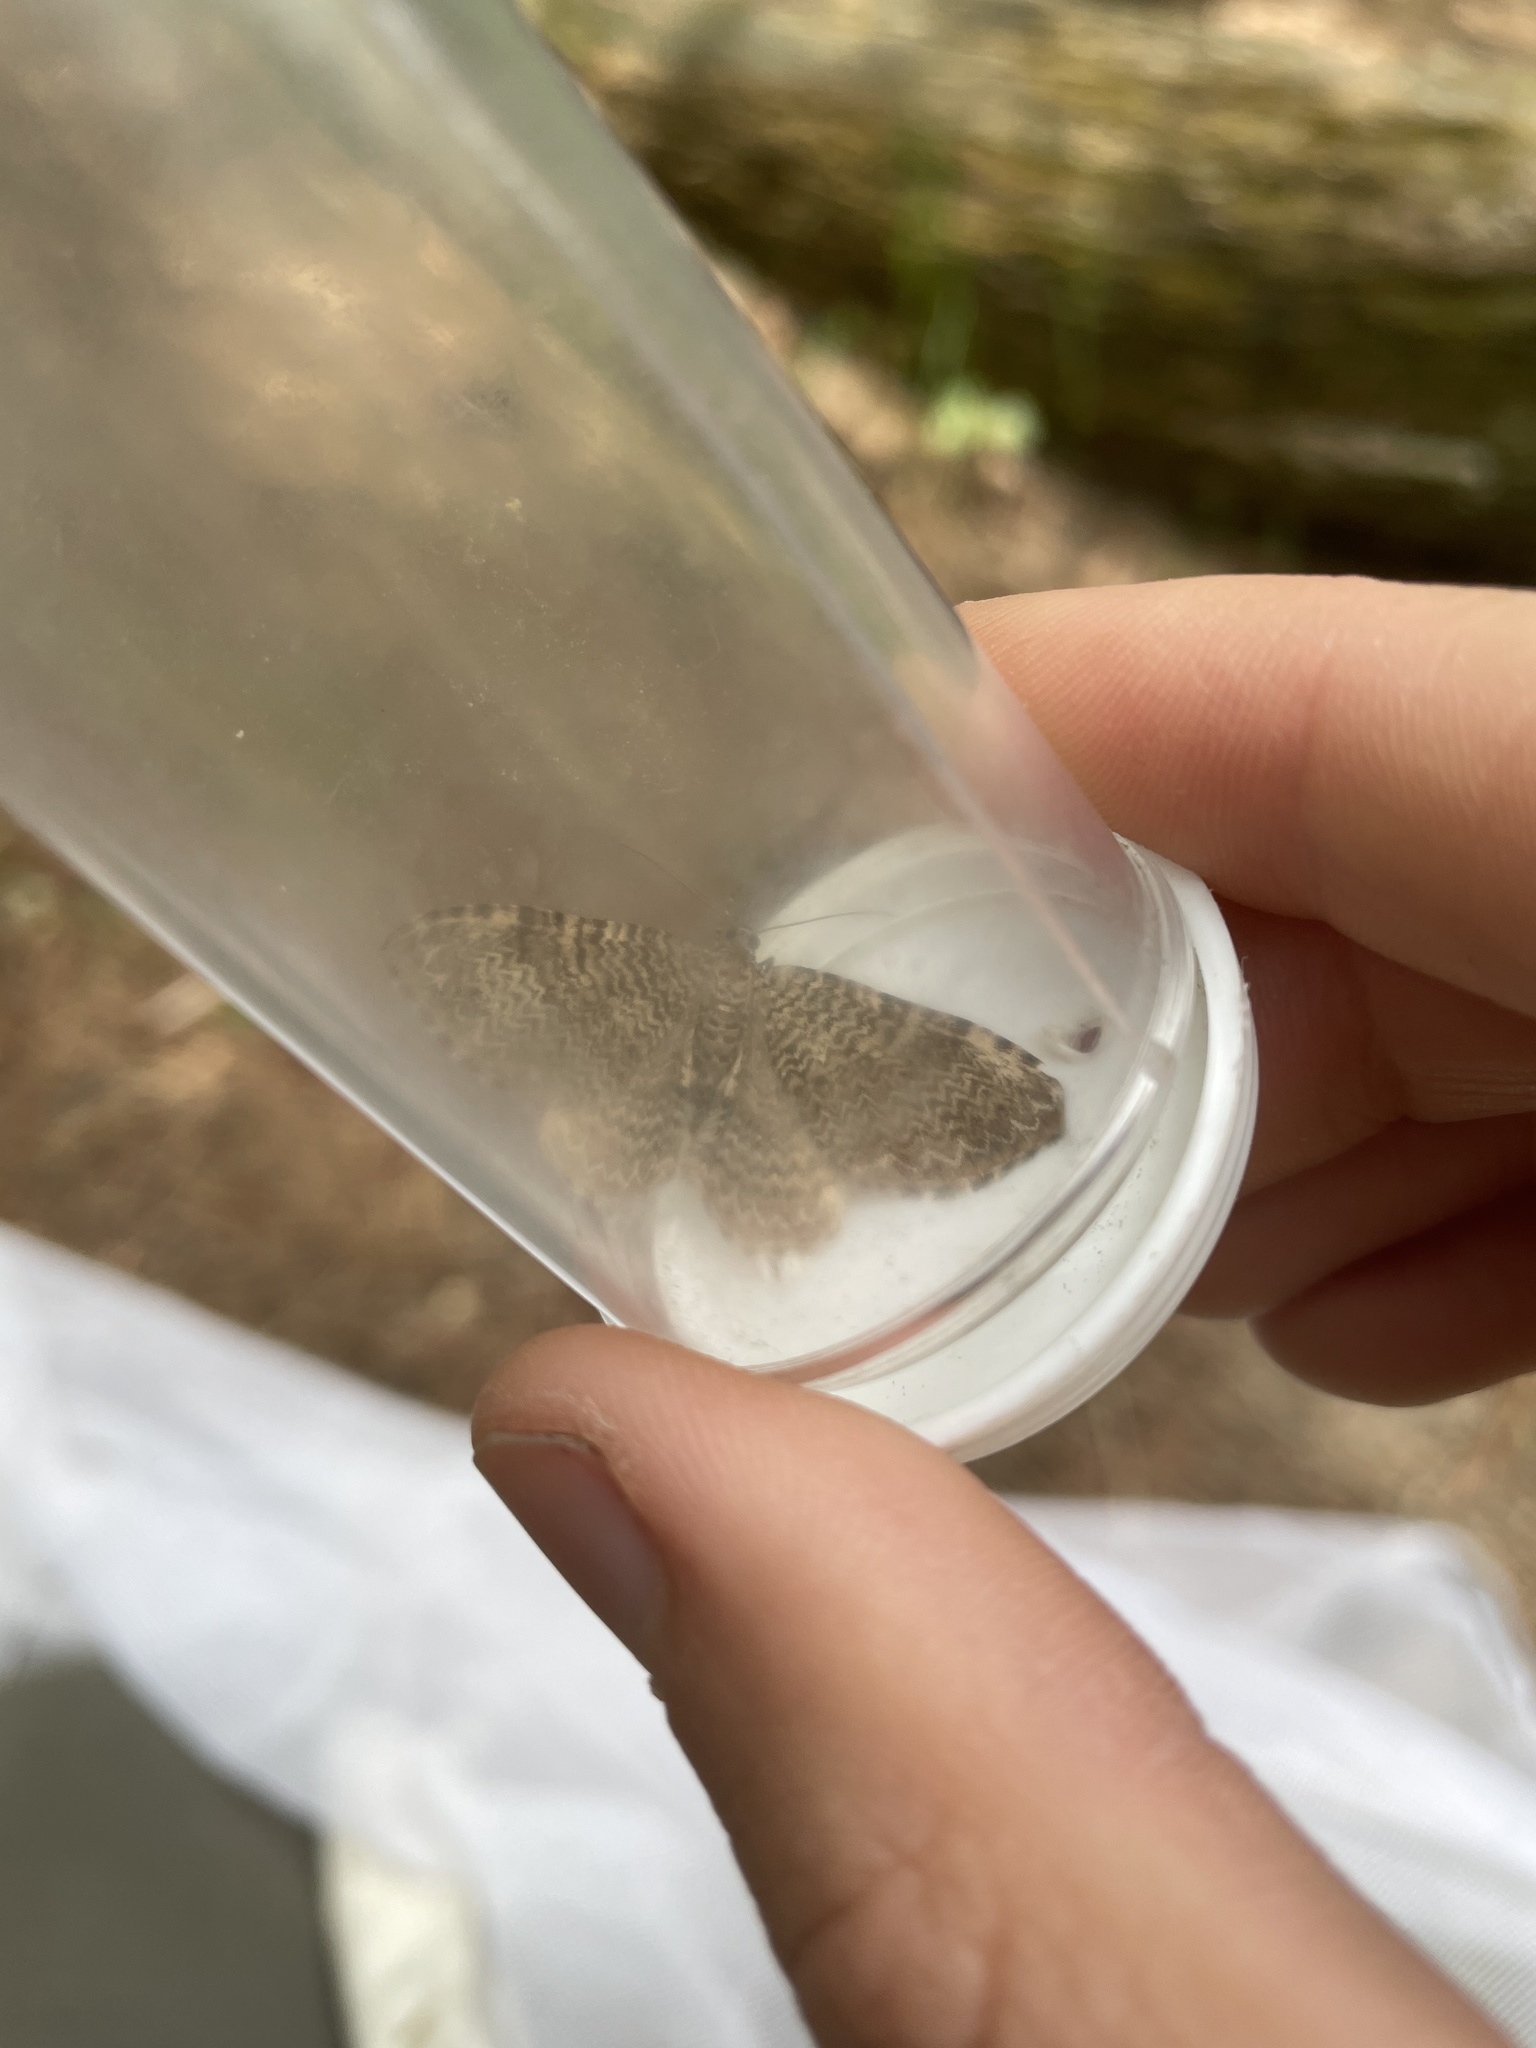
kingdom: Animalia
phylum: Arthropoda
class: Insecta
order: Lepidoptera
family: Geometridae
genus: Rheumaptera
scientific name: Rheumaptera
